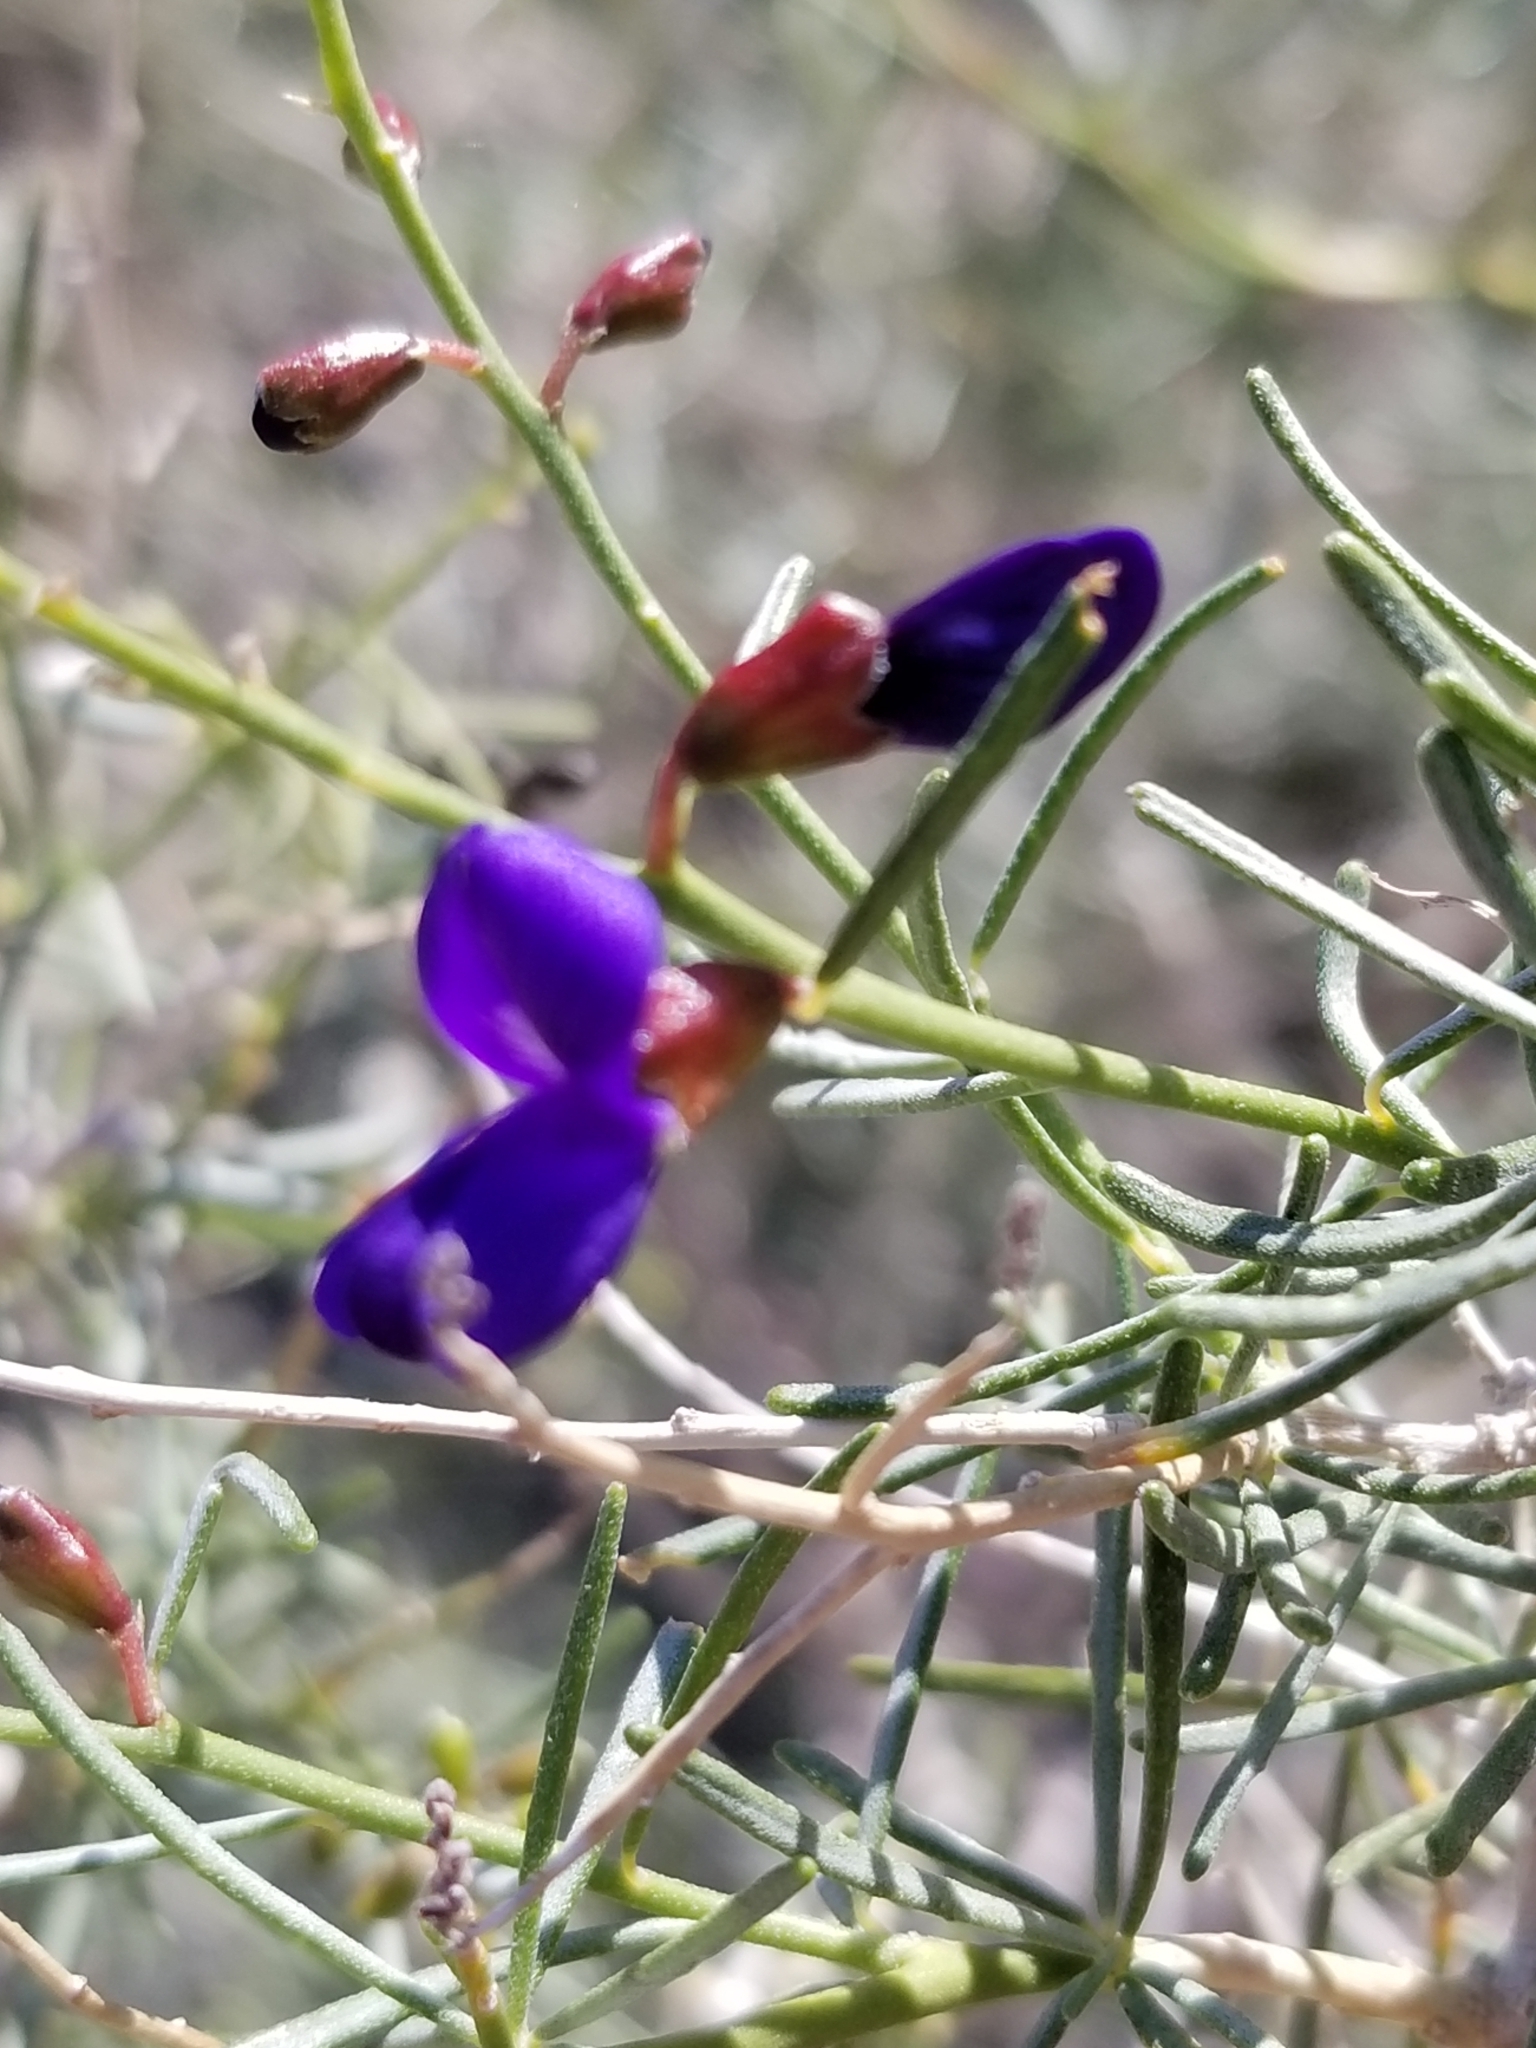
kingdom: Plantae
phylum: Tracheophyta
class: Magnoliopsida
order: Fabales
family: Fabaceae
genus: Psorothamnus
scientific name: Psorothamnus schottii
